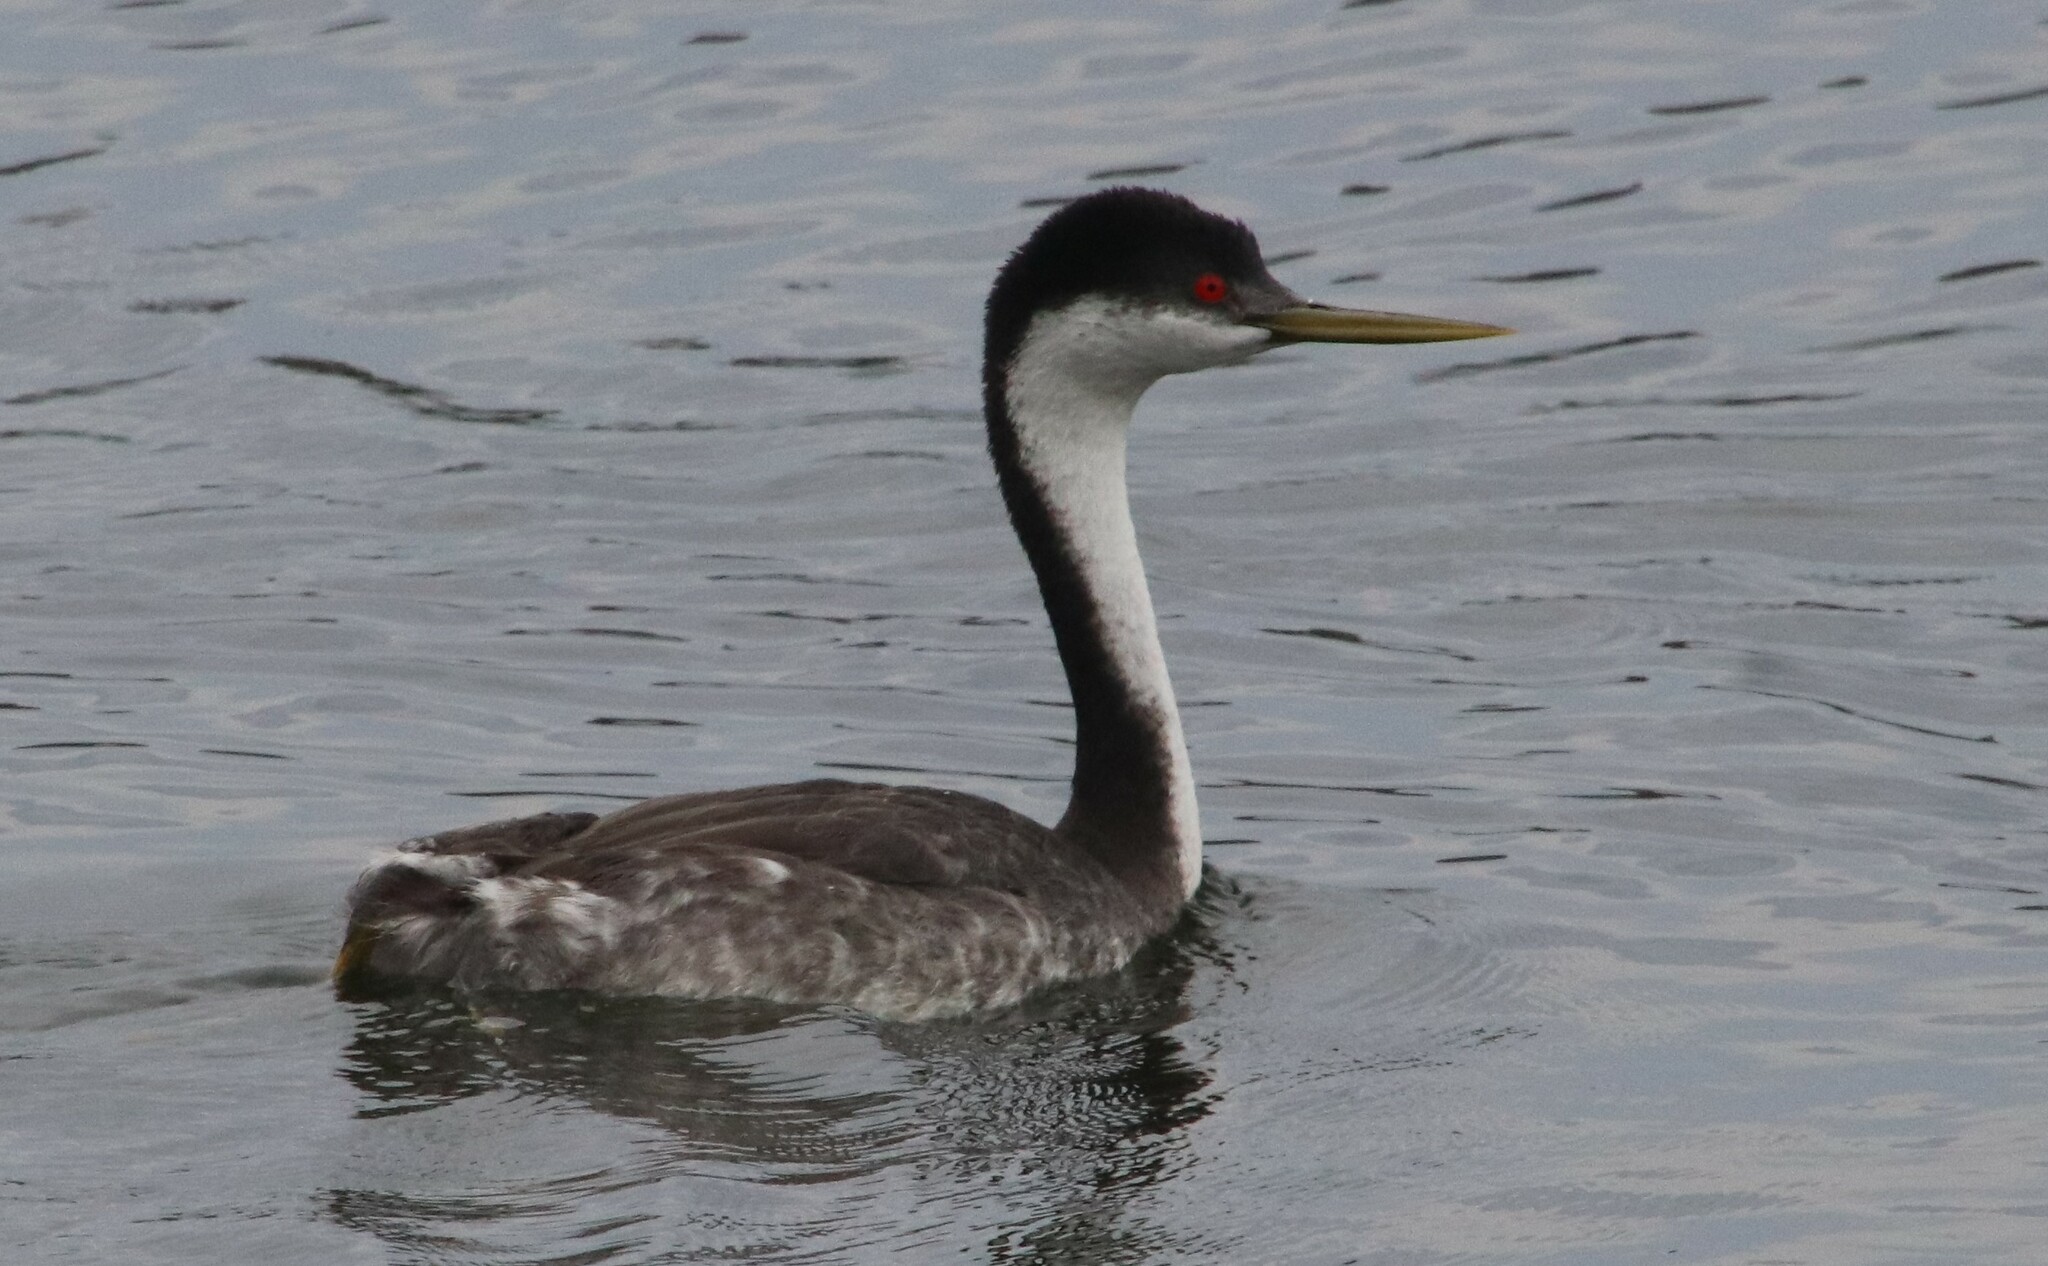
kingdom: Animalia
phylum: Chordata
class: Aves
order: Podicipediformes
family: Podicipedidae
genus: Aechmophorus
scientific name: Aechmophorus occidentalis
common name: Western grebe
